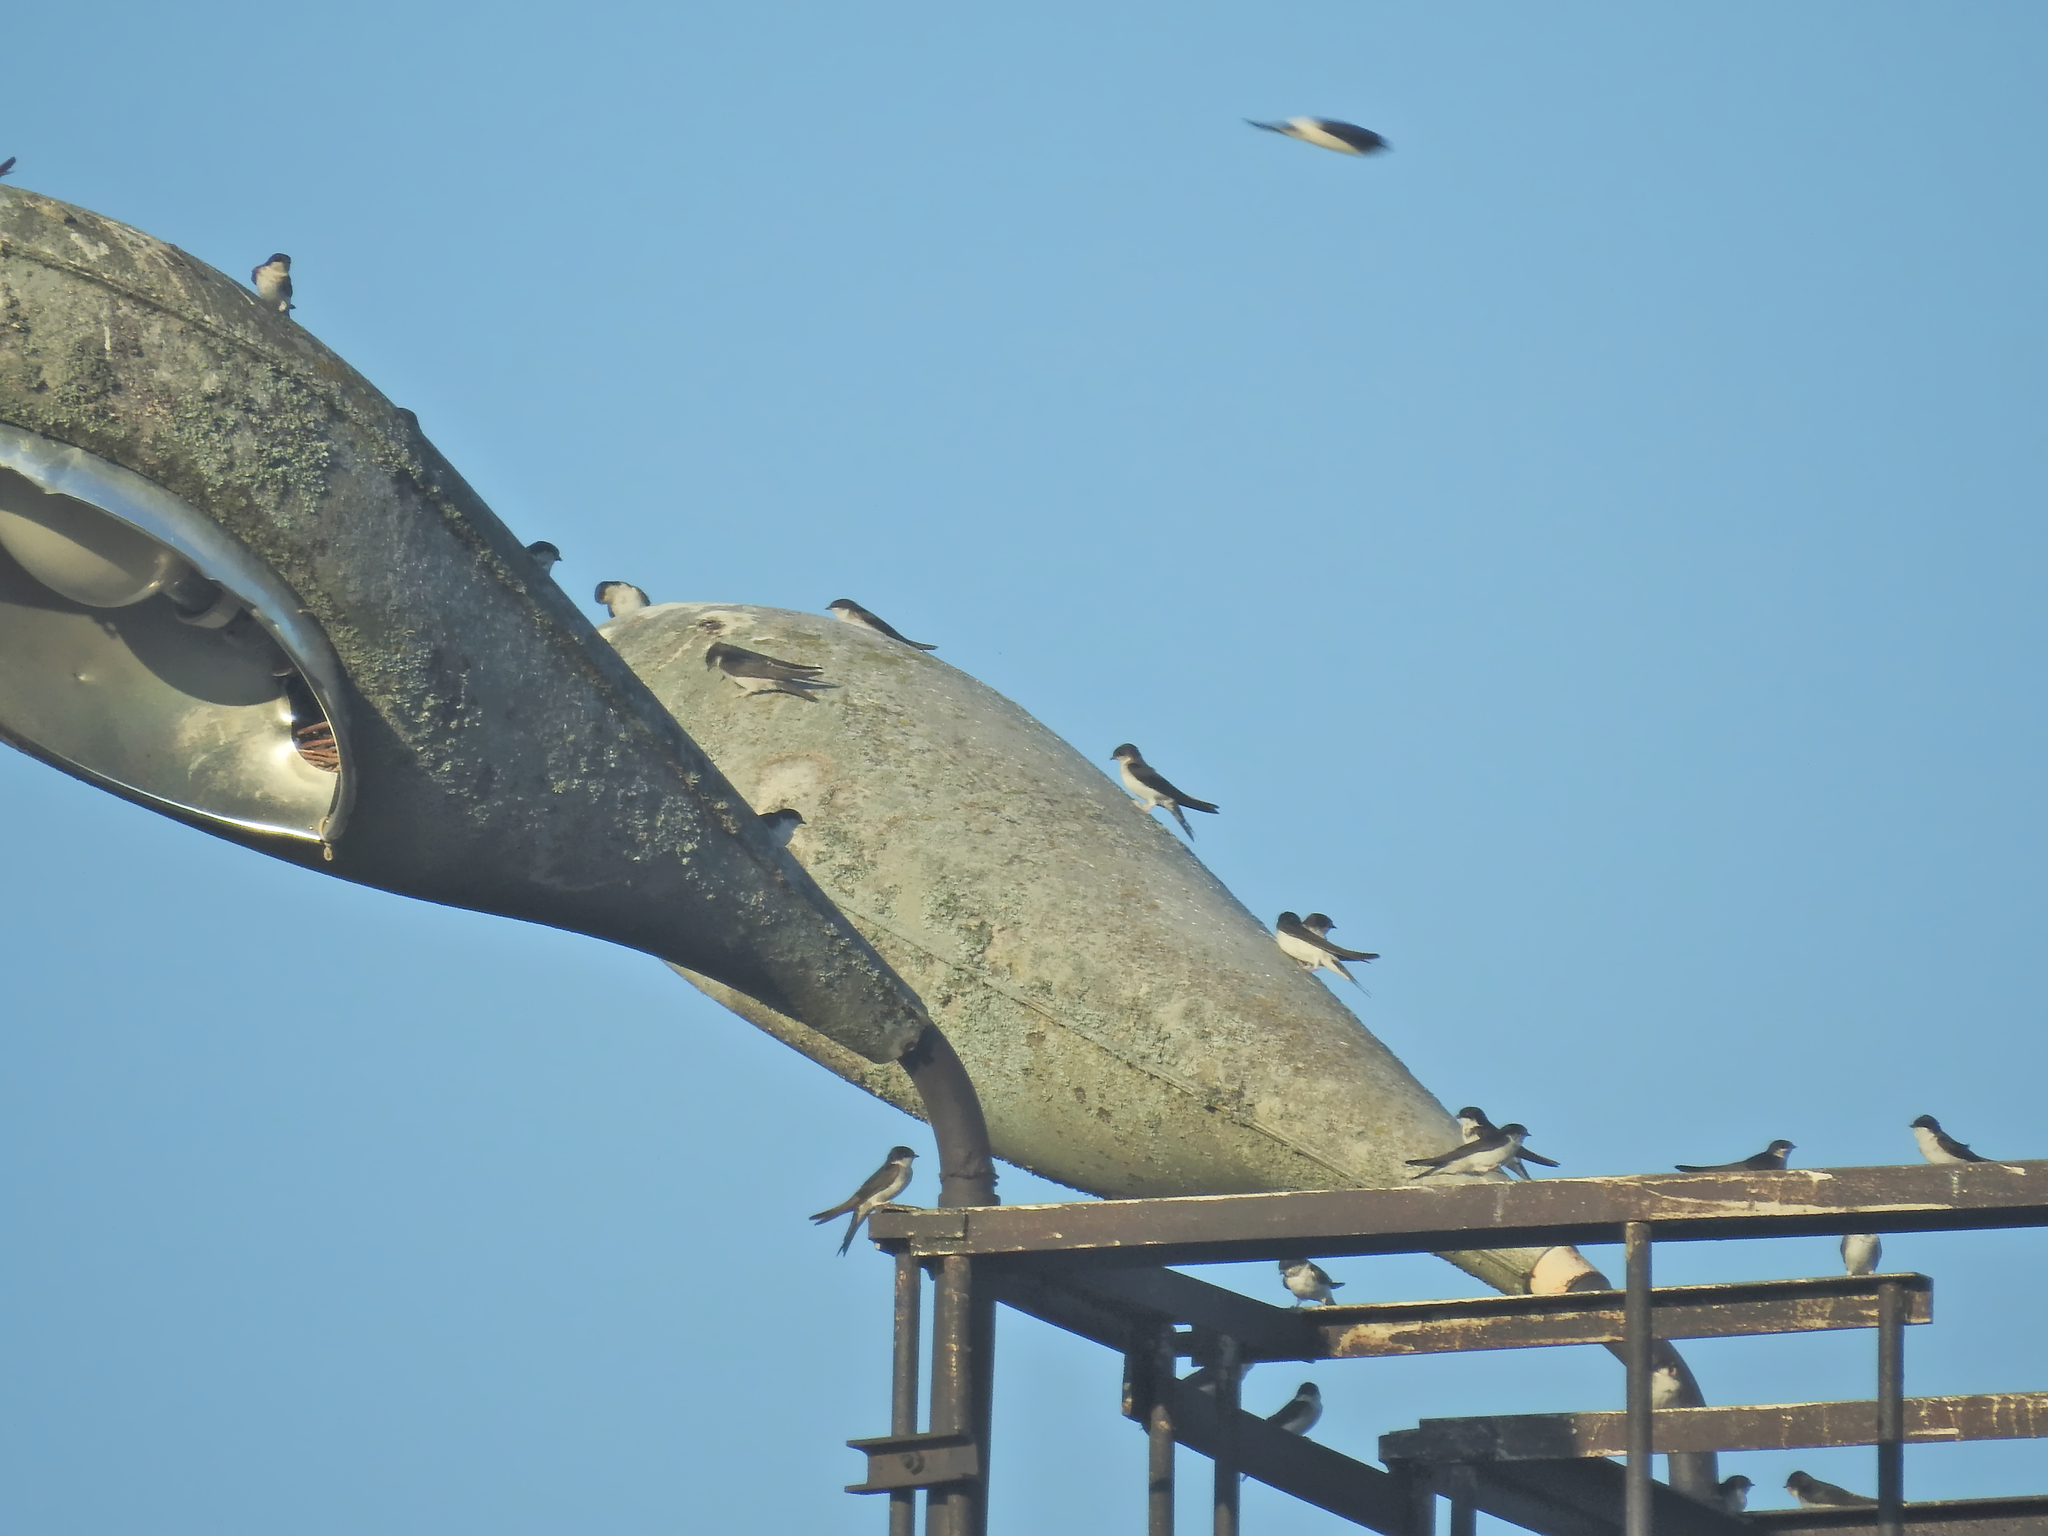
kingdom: Animalia
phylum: Chordata
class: Aves
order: Passeriformes
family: Hirundinidae
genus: Delichon
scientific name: Delichon urbicum
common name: Common house martin
